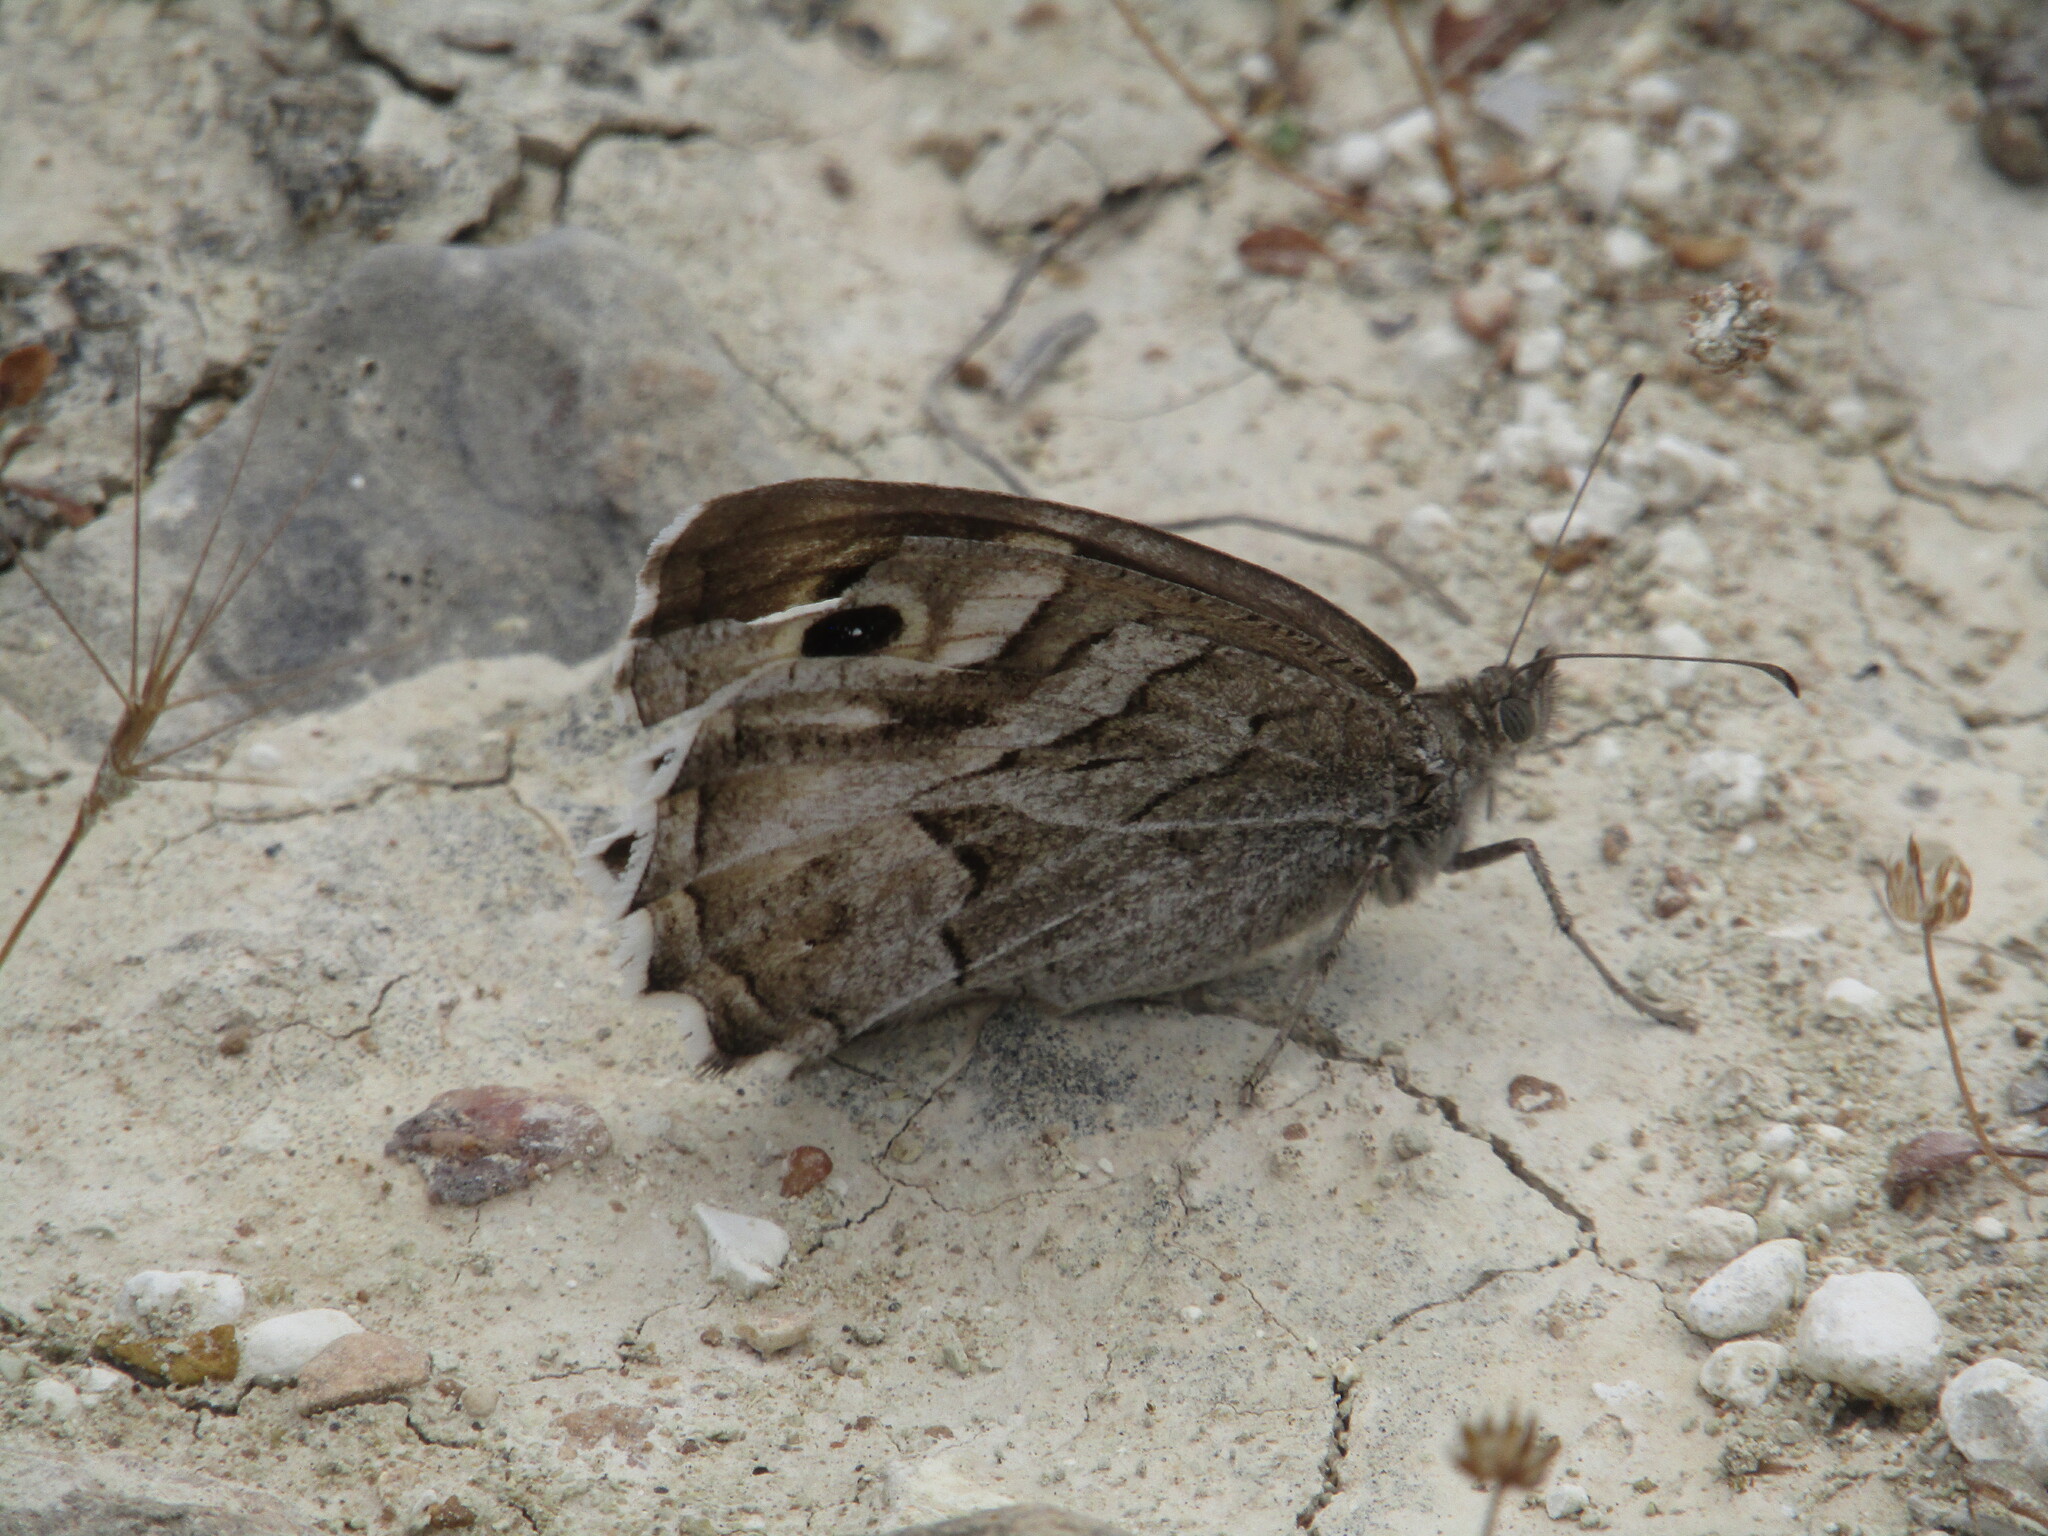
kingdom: Animalia
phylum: Arthropoda
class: Insecta
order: Lepidoptera
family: Nymphalidae
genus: Hipparchia
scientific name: Hipparchia fidia
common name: Striped grayling
